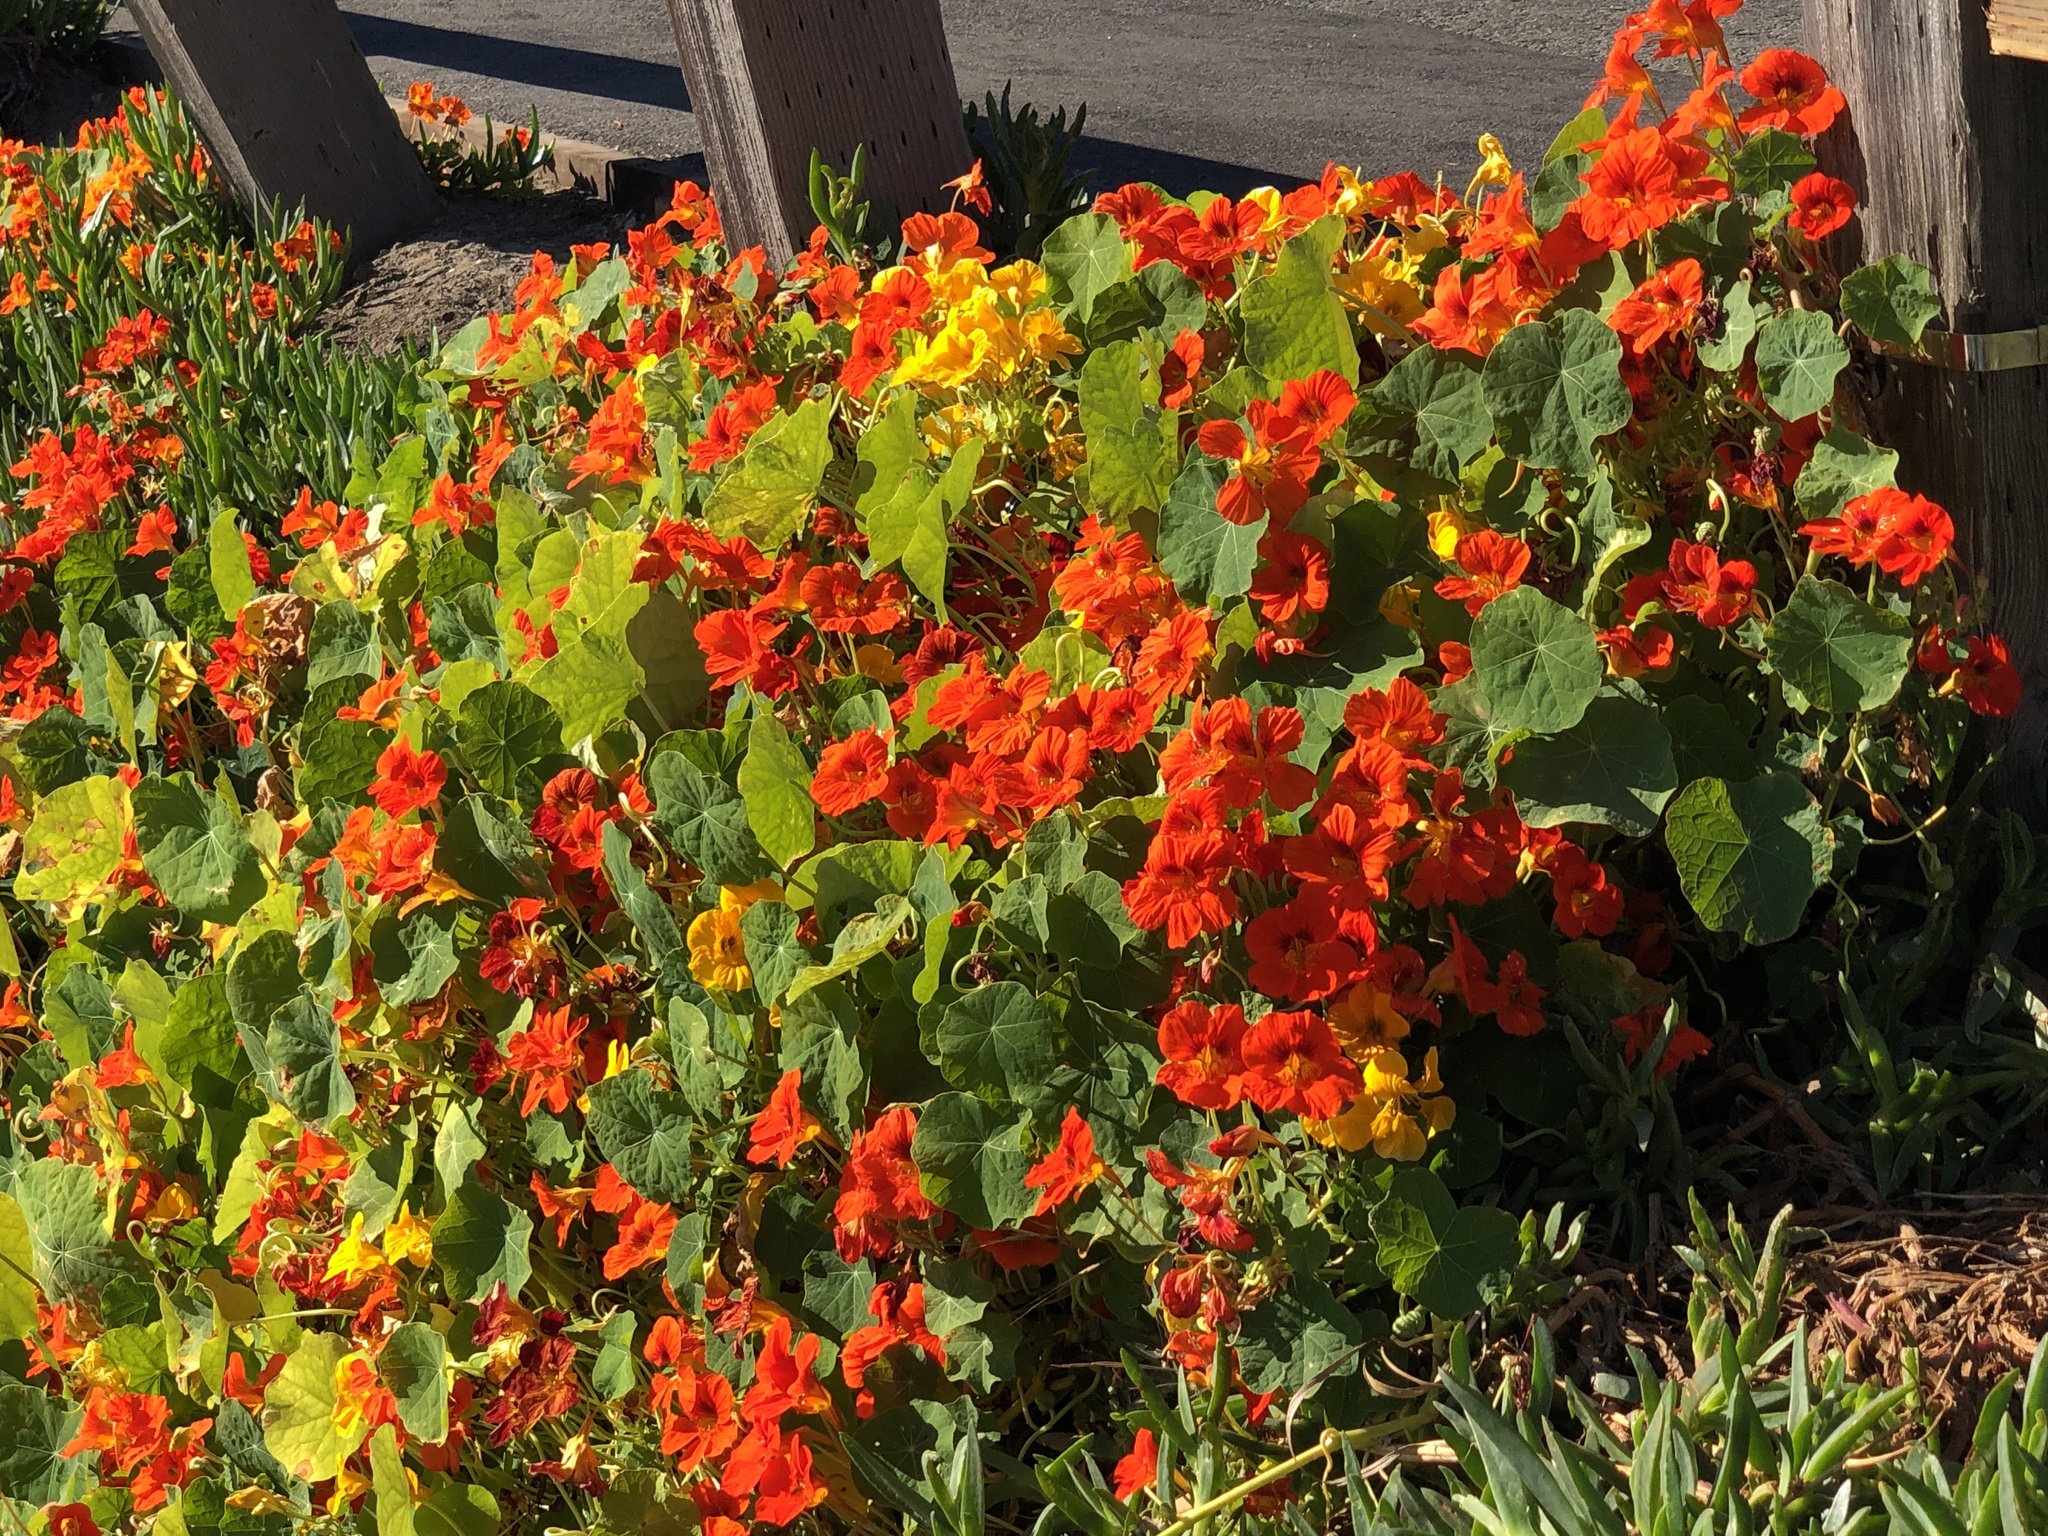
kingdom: Plantae
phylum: Tracheophyta
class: Magnoliopsida
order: Brassicales
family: Tropaeolaceae
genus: Tropaeolum
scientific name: Tropaeolum majus
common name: Nasturtium
